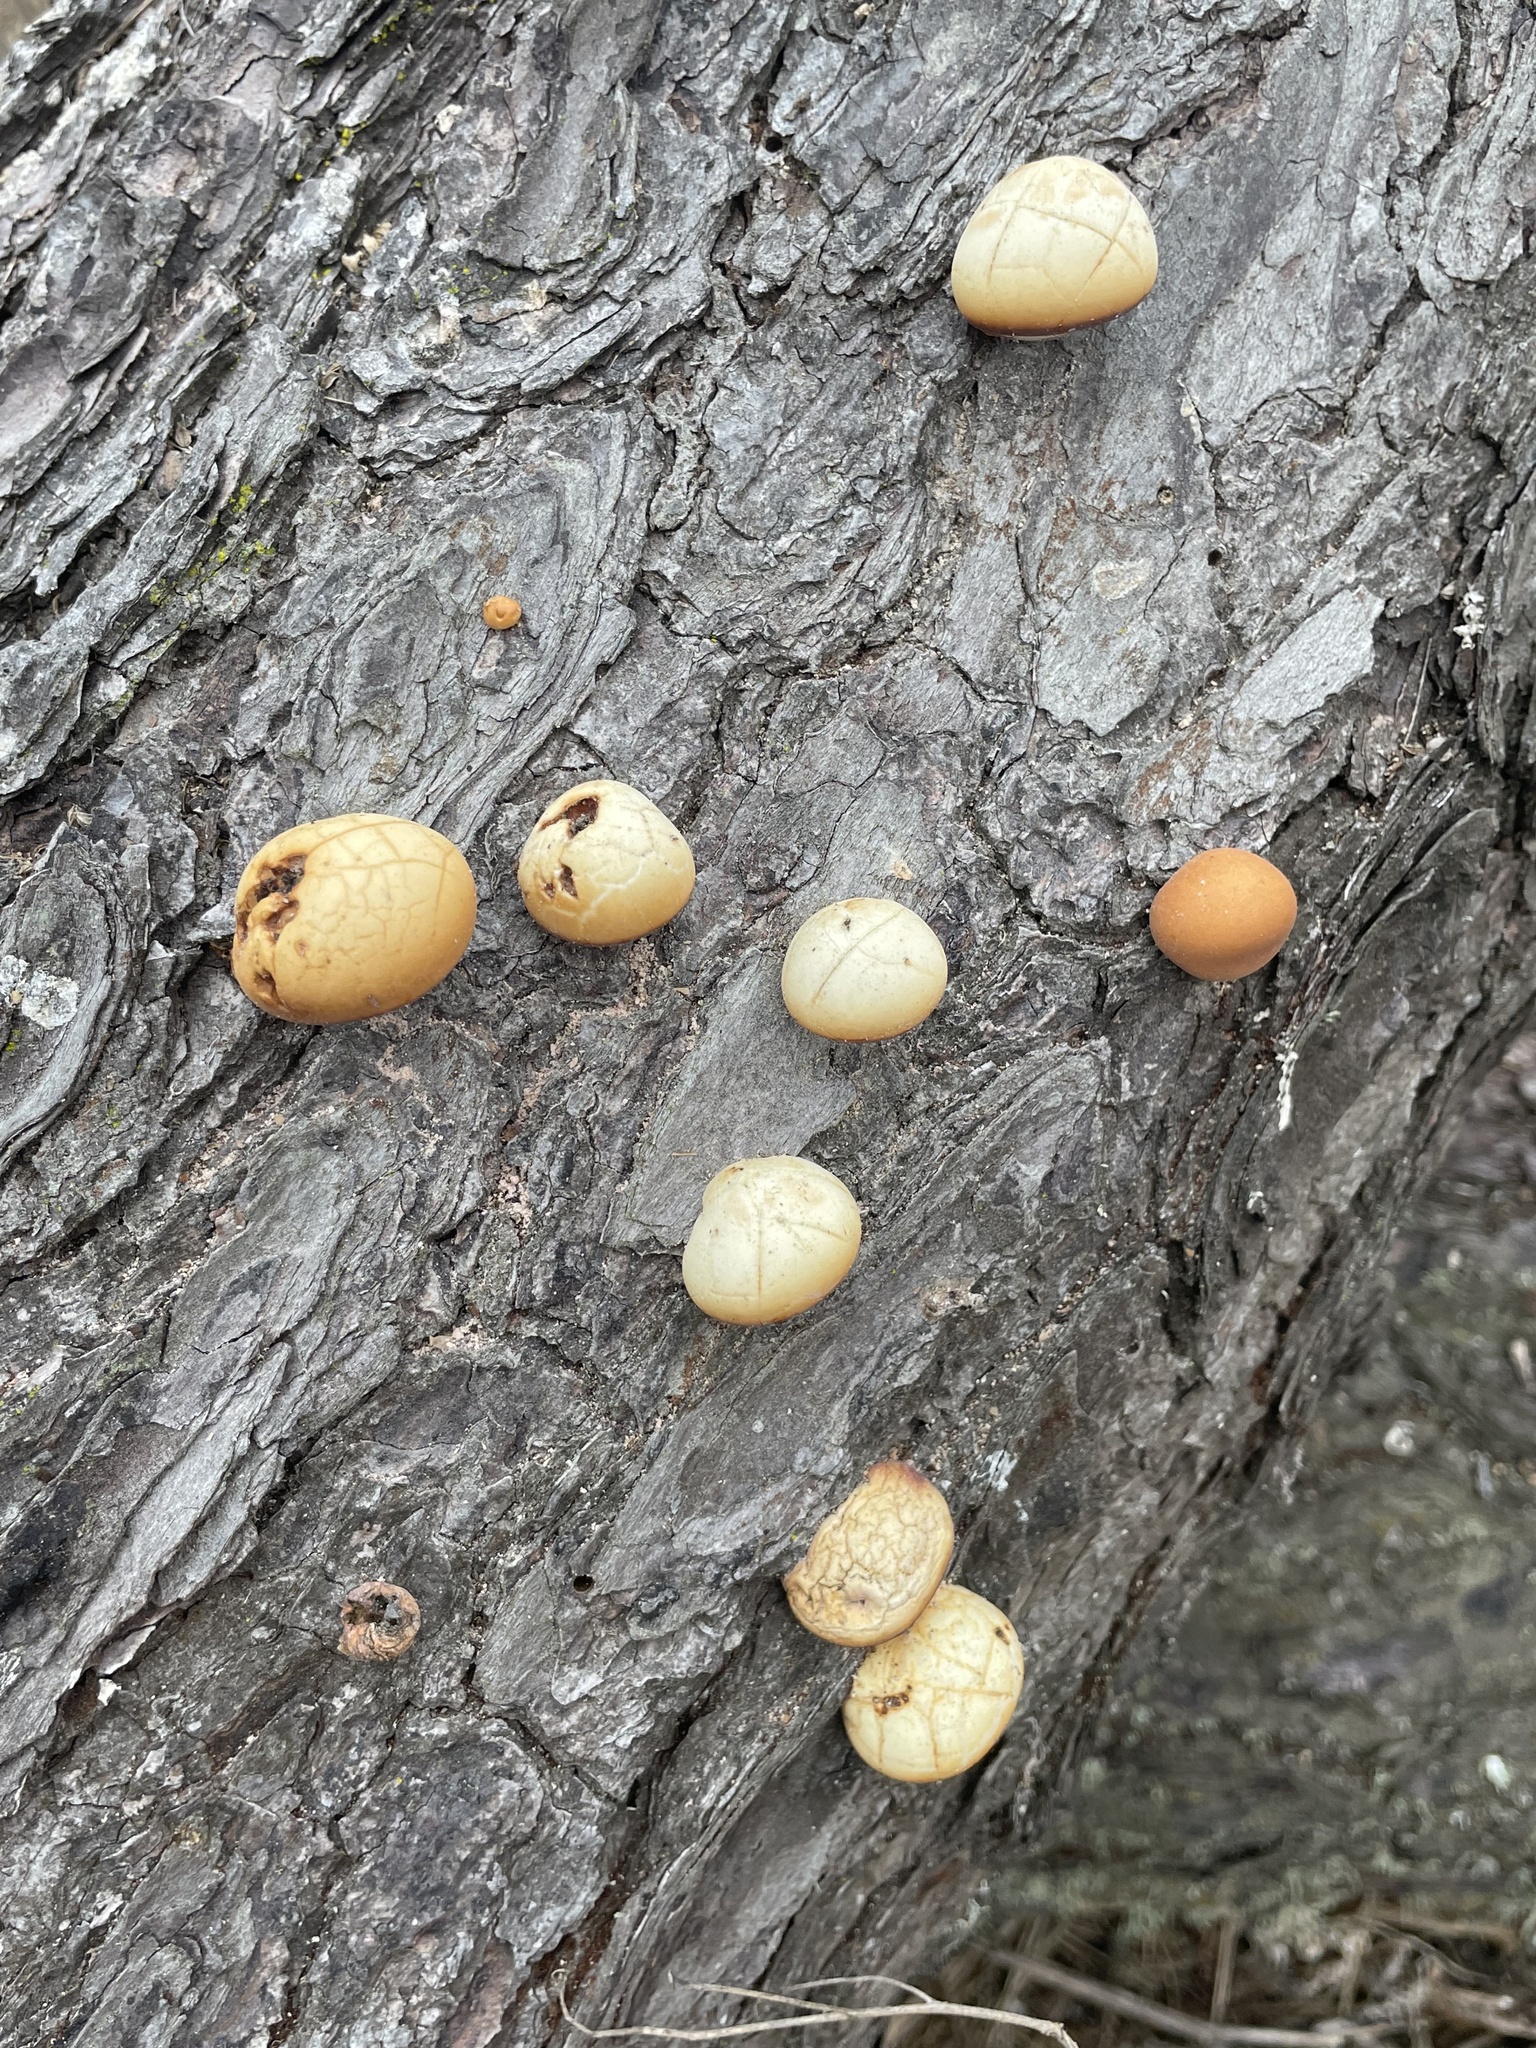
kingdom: Fungi
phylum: Basidiomycota
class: Agaricomycetes
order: Polyporales
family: Polyporaceae
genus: Cryptoporus
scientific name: Cryptoporus volvatus
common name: Veiled polypore
